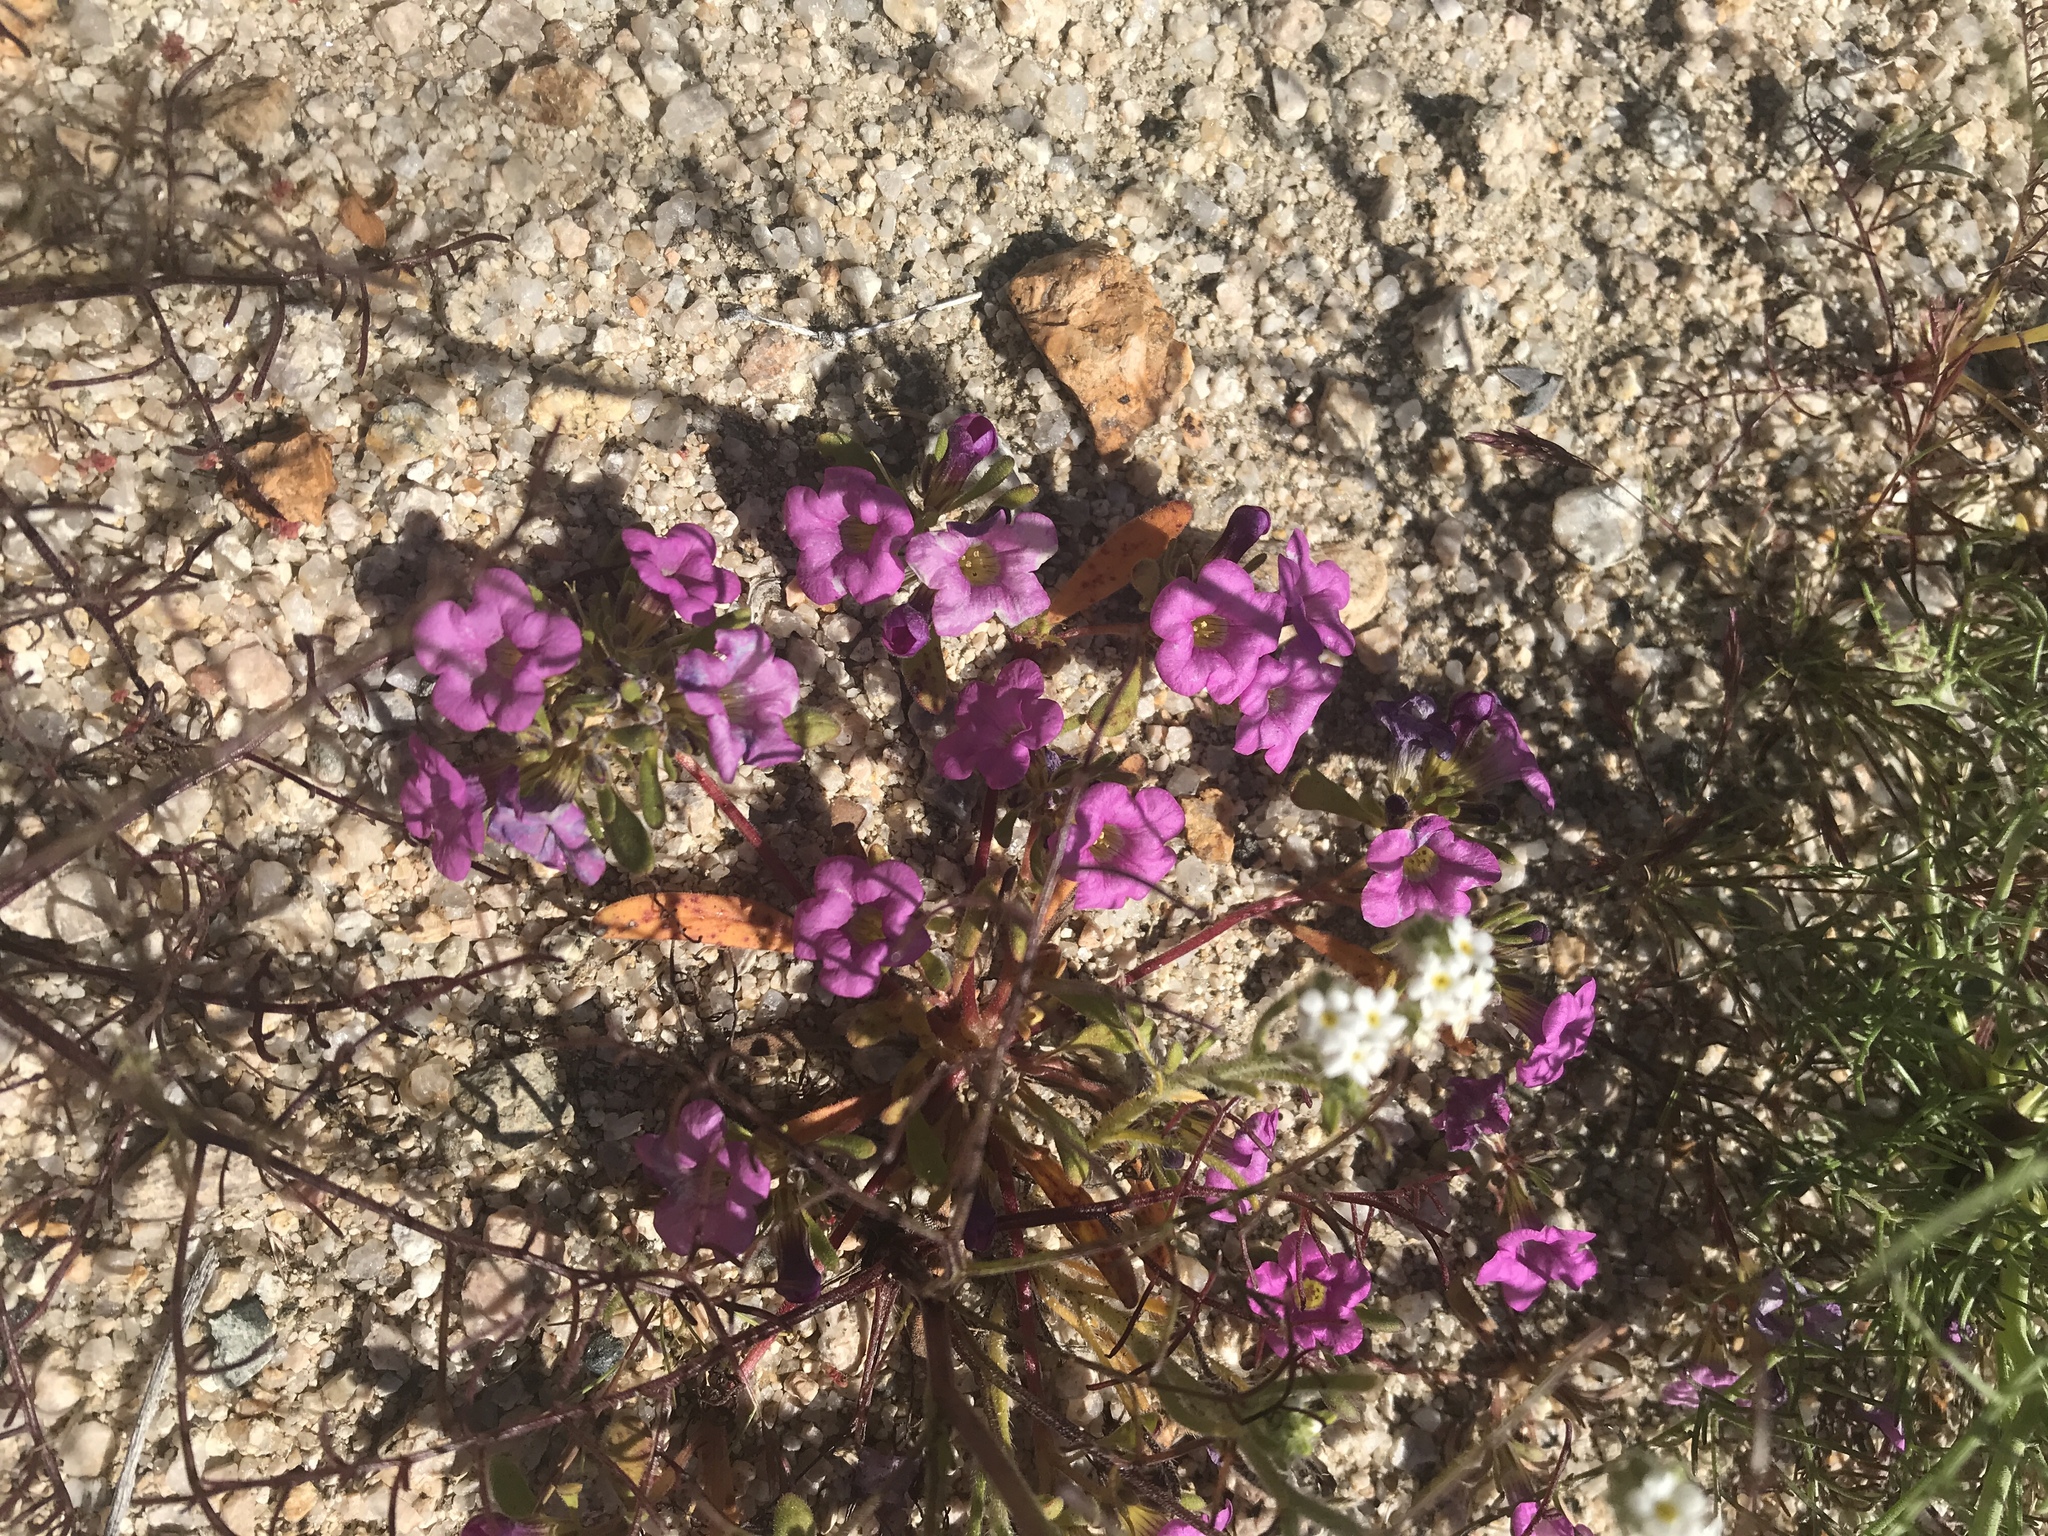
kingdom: Plantae
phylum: Tracheophyta
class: Magnoliopsida
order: Boraginales
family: Namaceae
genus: Nama
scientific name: Nama demissa
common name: Leafy nama
